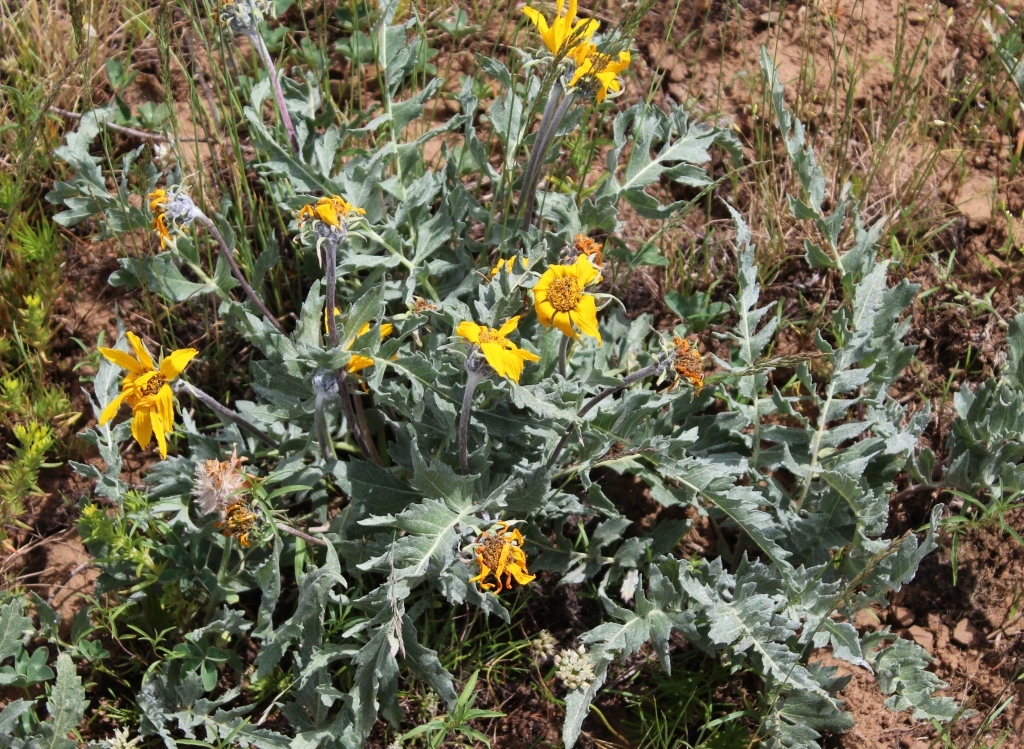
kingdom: Plantae
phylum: Tracheophyta
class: Magnoliopsida
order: Asterales
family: Asteraceae
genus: Balsamorhiza
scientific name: Balsamorhiza incana
